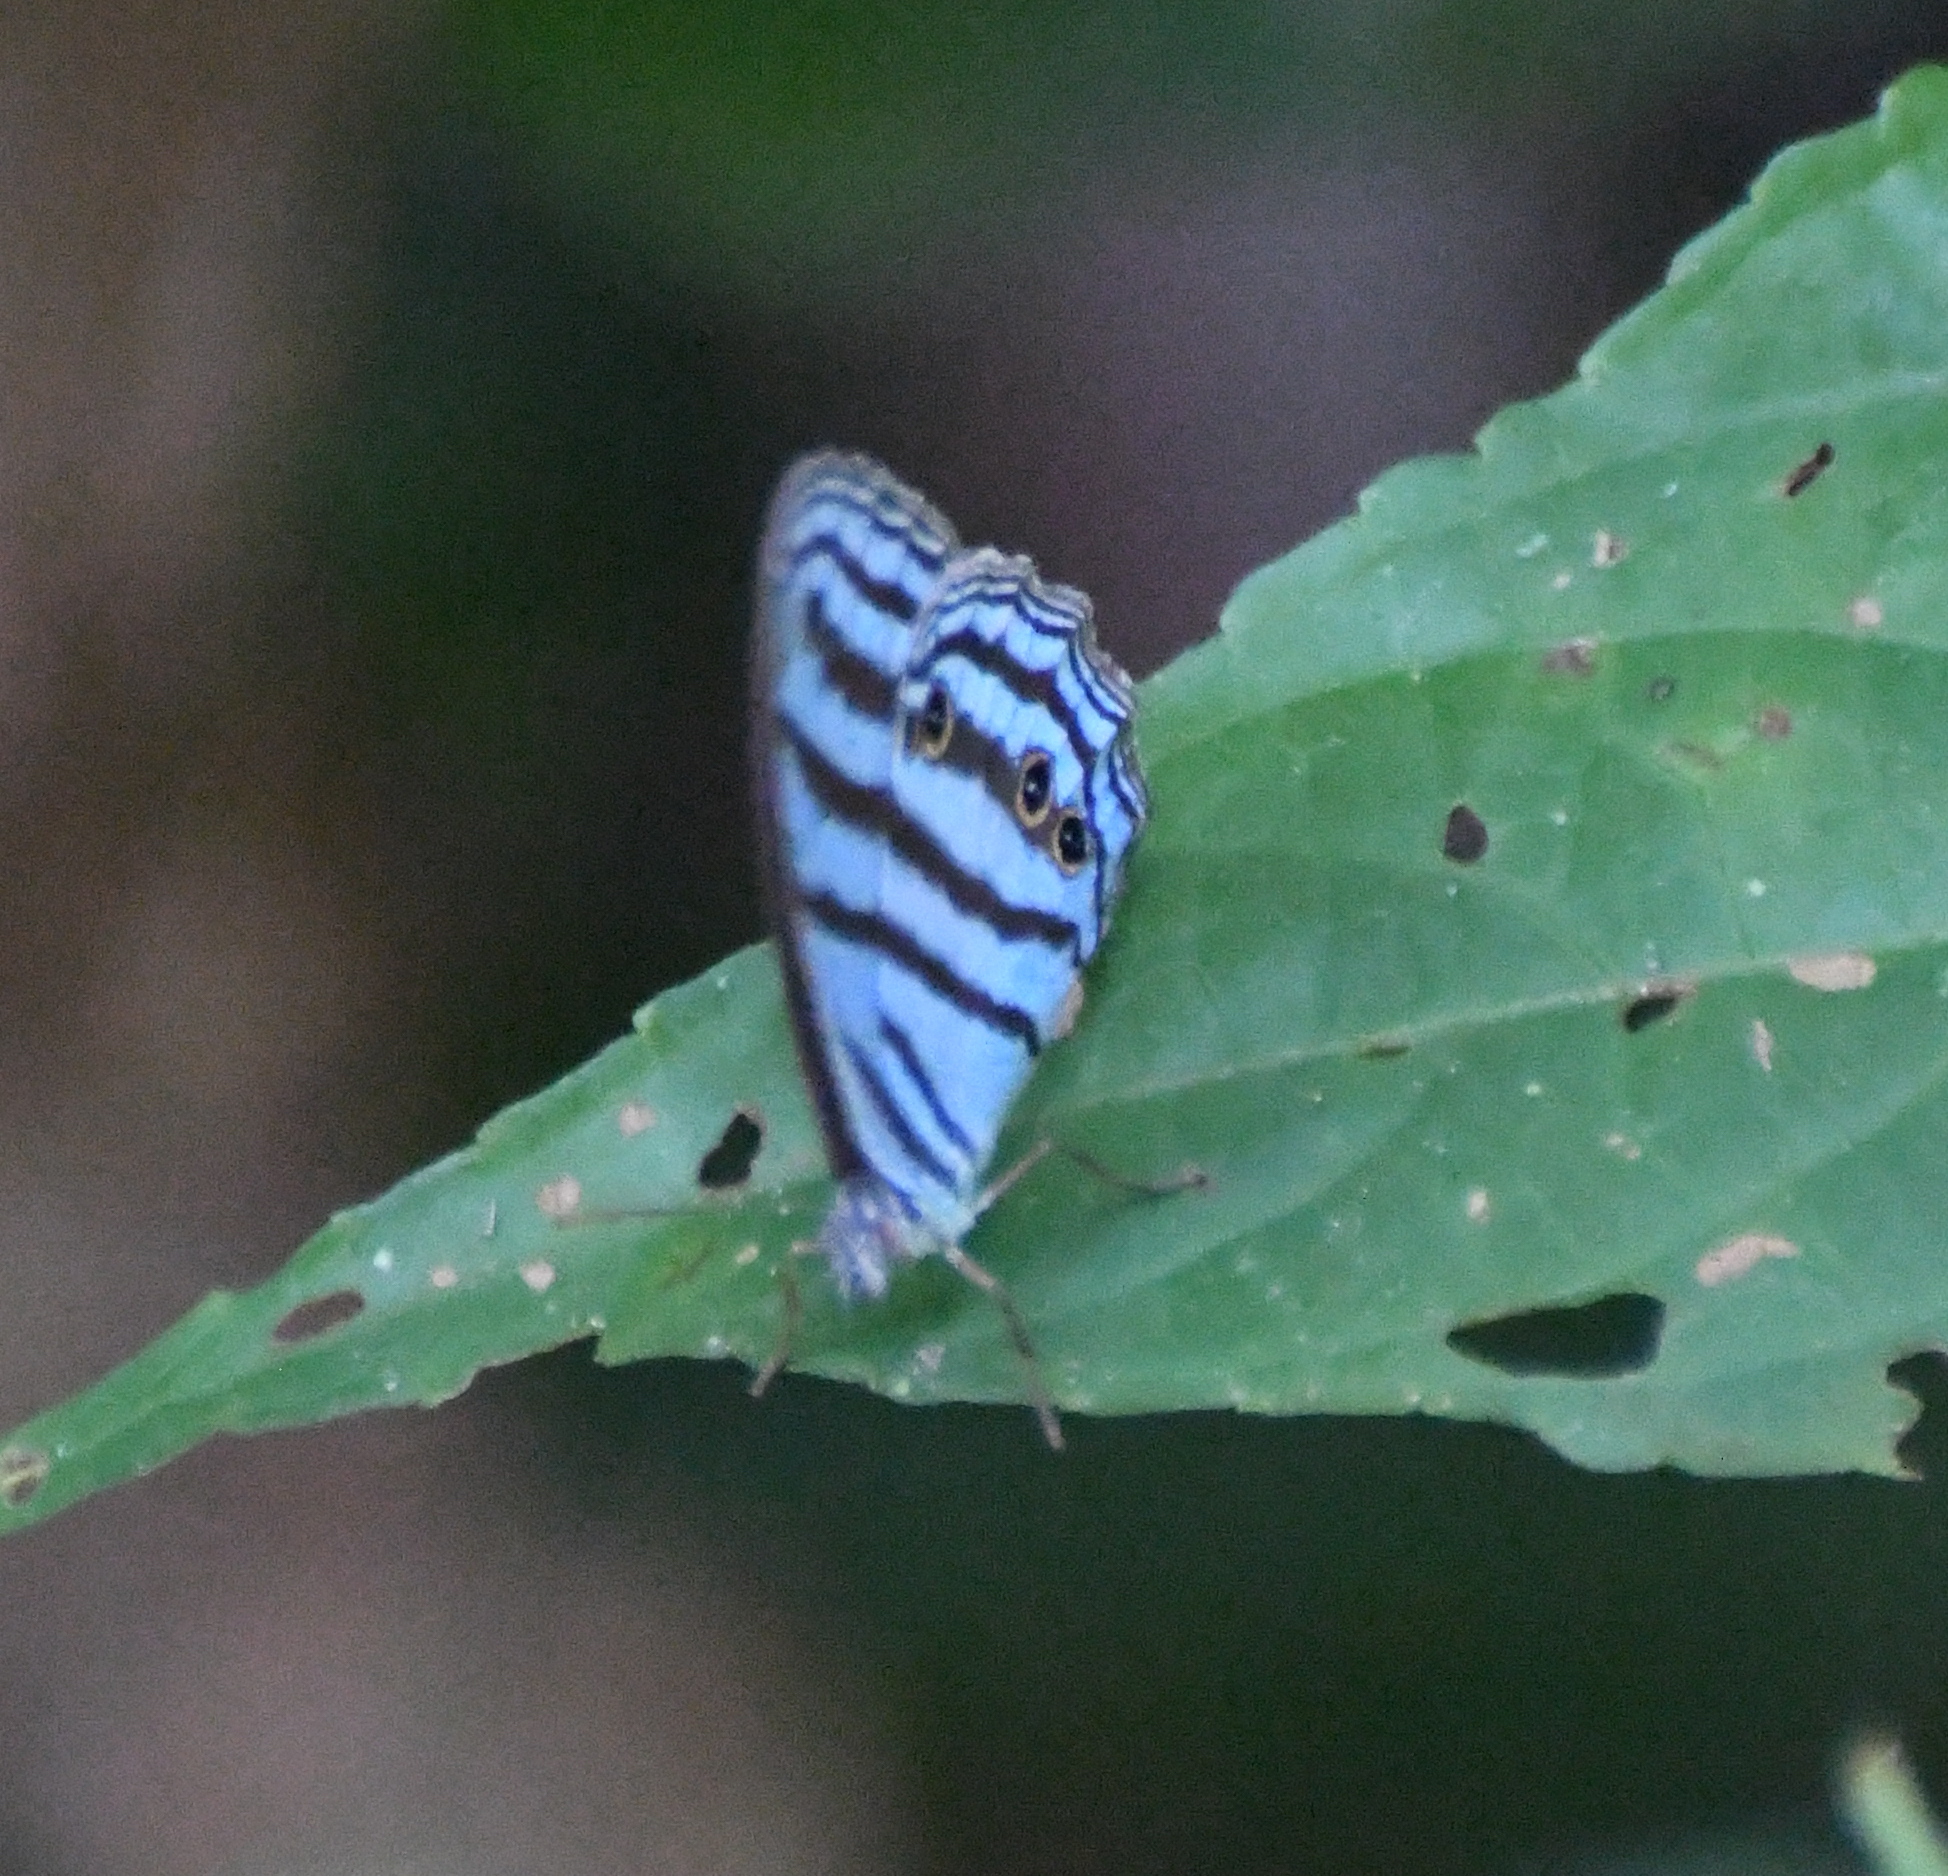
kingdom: Animalia
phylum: Arthropoda
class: Insecta
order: Lepidoptera
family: Nymphalidae
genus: Cepheuptychia
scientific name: Cepheuptychia cephus
